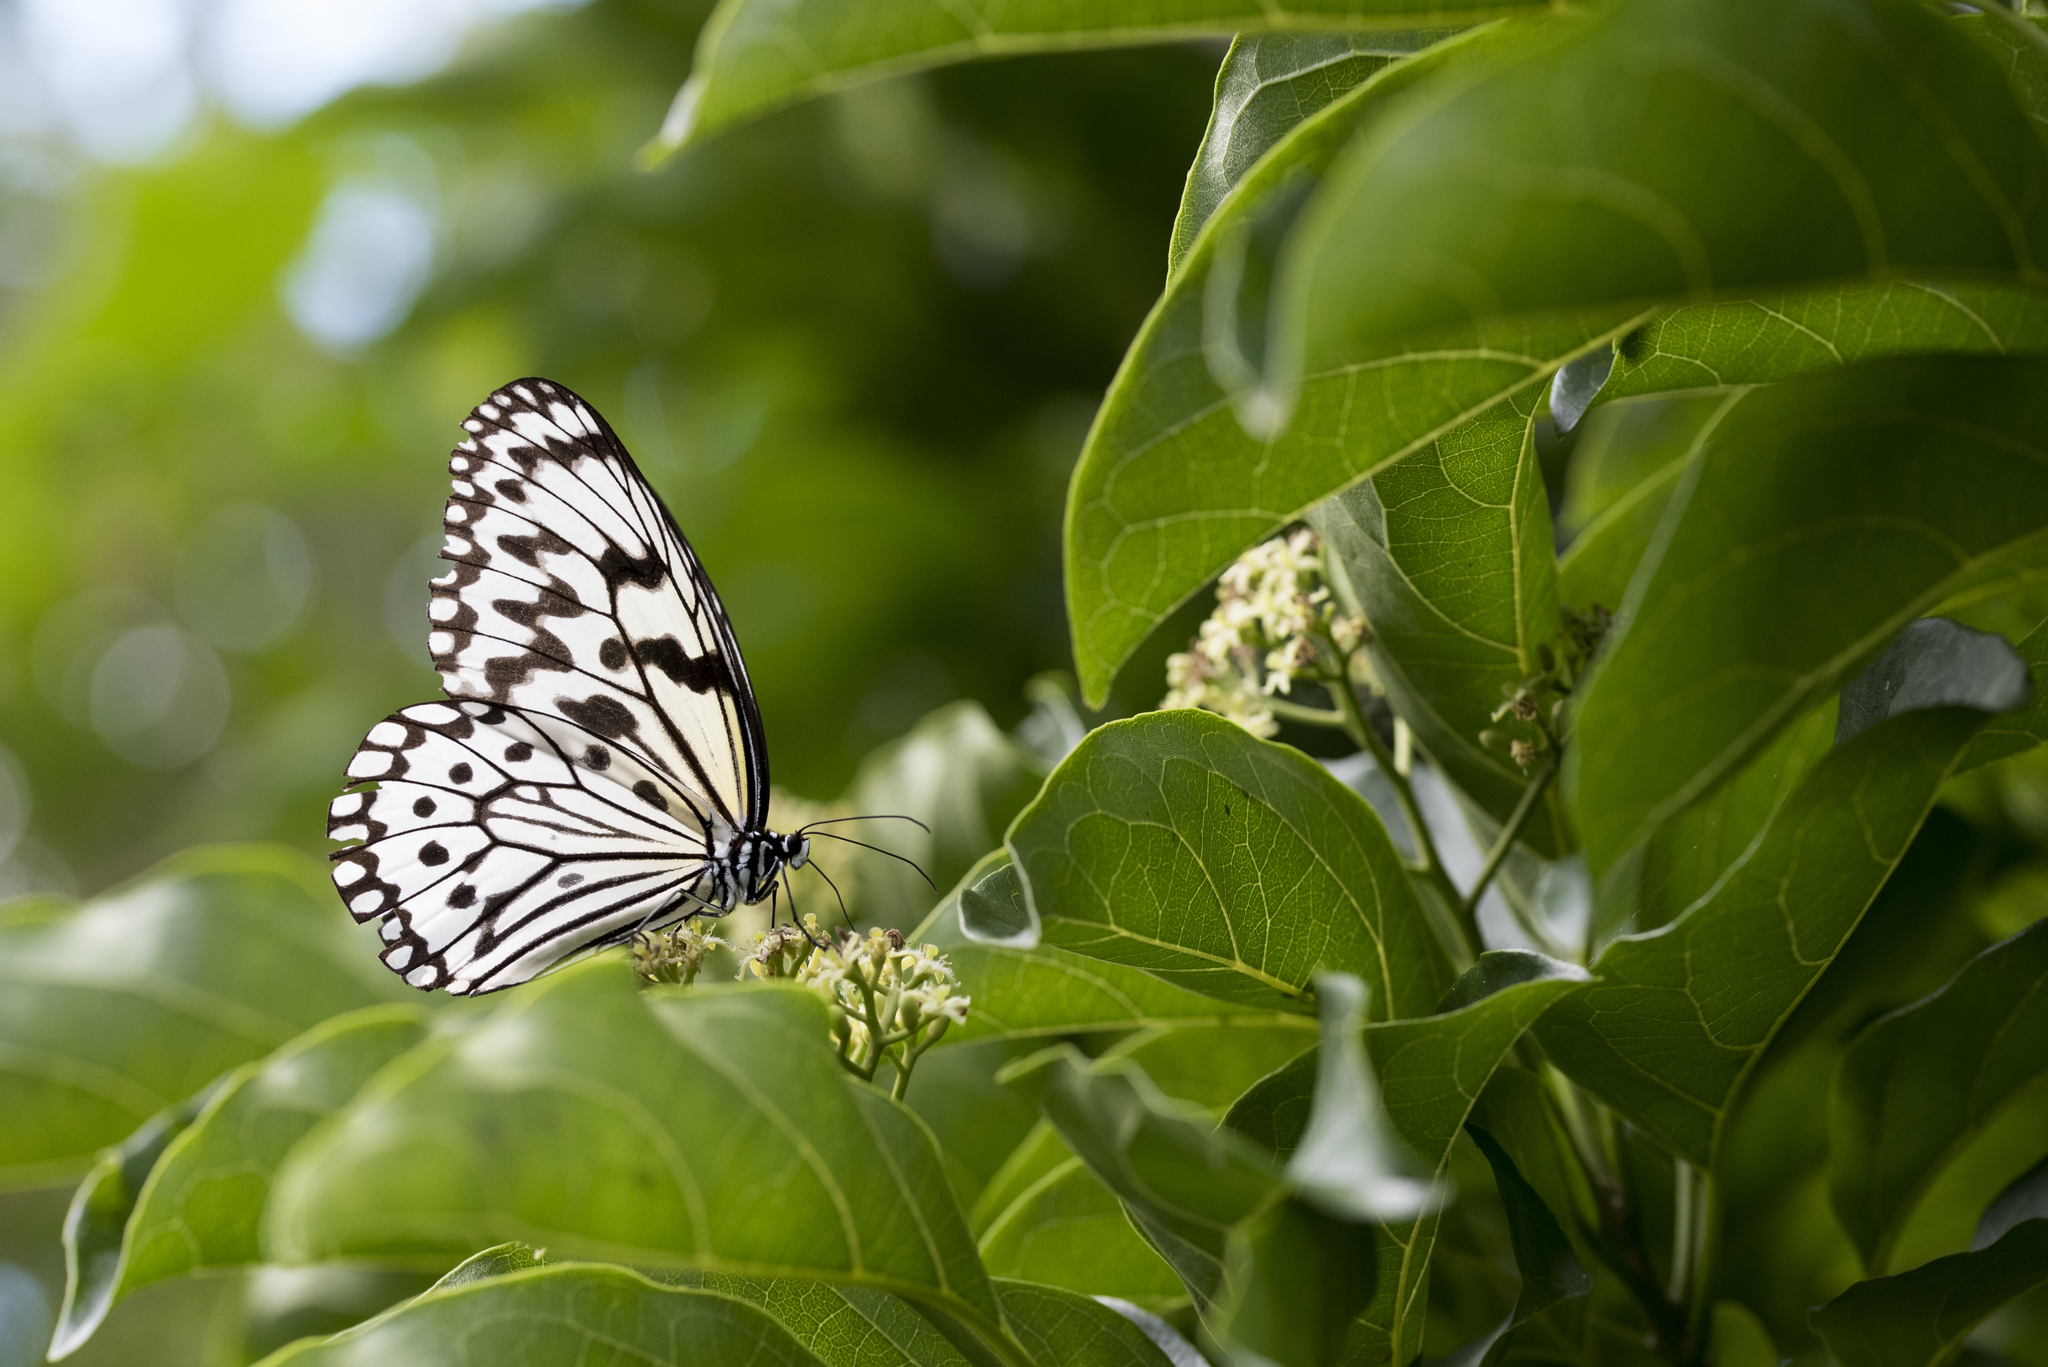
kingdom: Animalia
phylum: Arthropoda
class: Insecta
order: Lepidoptera
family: Nymphalidae
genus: Idea
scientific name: Idea leuconoe
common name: Rice paper butterfly
